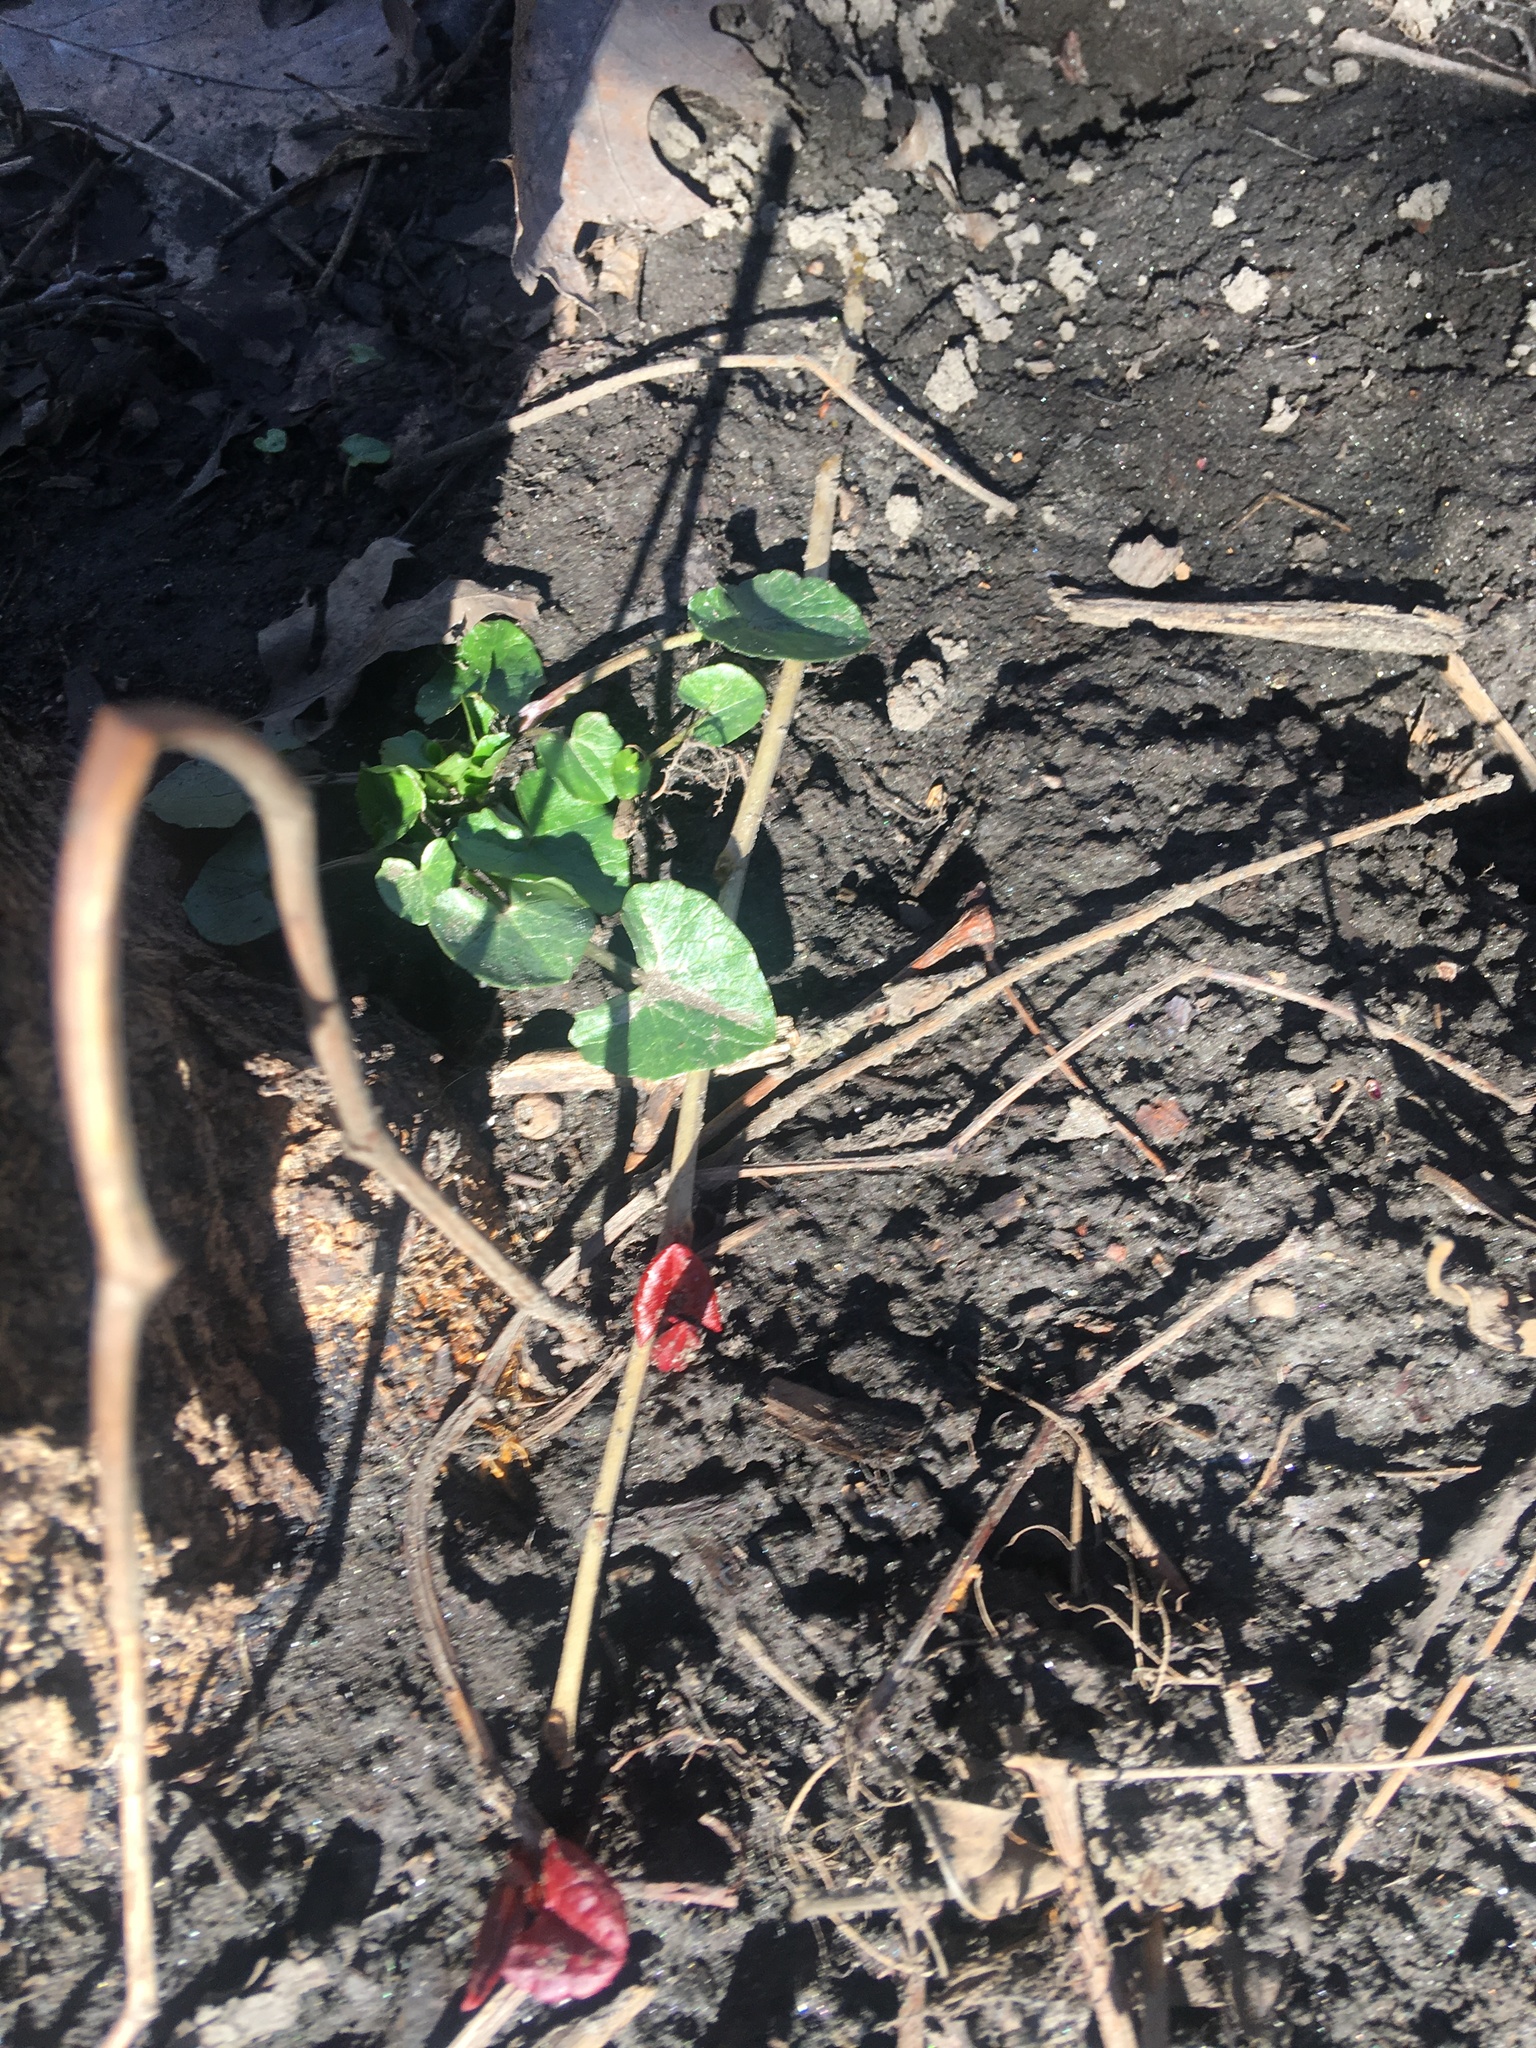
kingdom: Plantae
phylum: Tracheophyta
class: Magnoliopsida
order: Ranunculales
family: Ranunculaceae
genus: Ficaria
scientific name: Ficaria verna
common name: Lesser celandine
